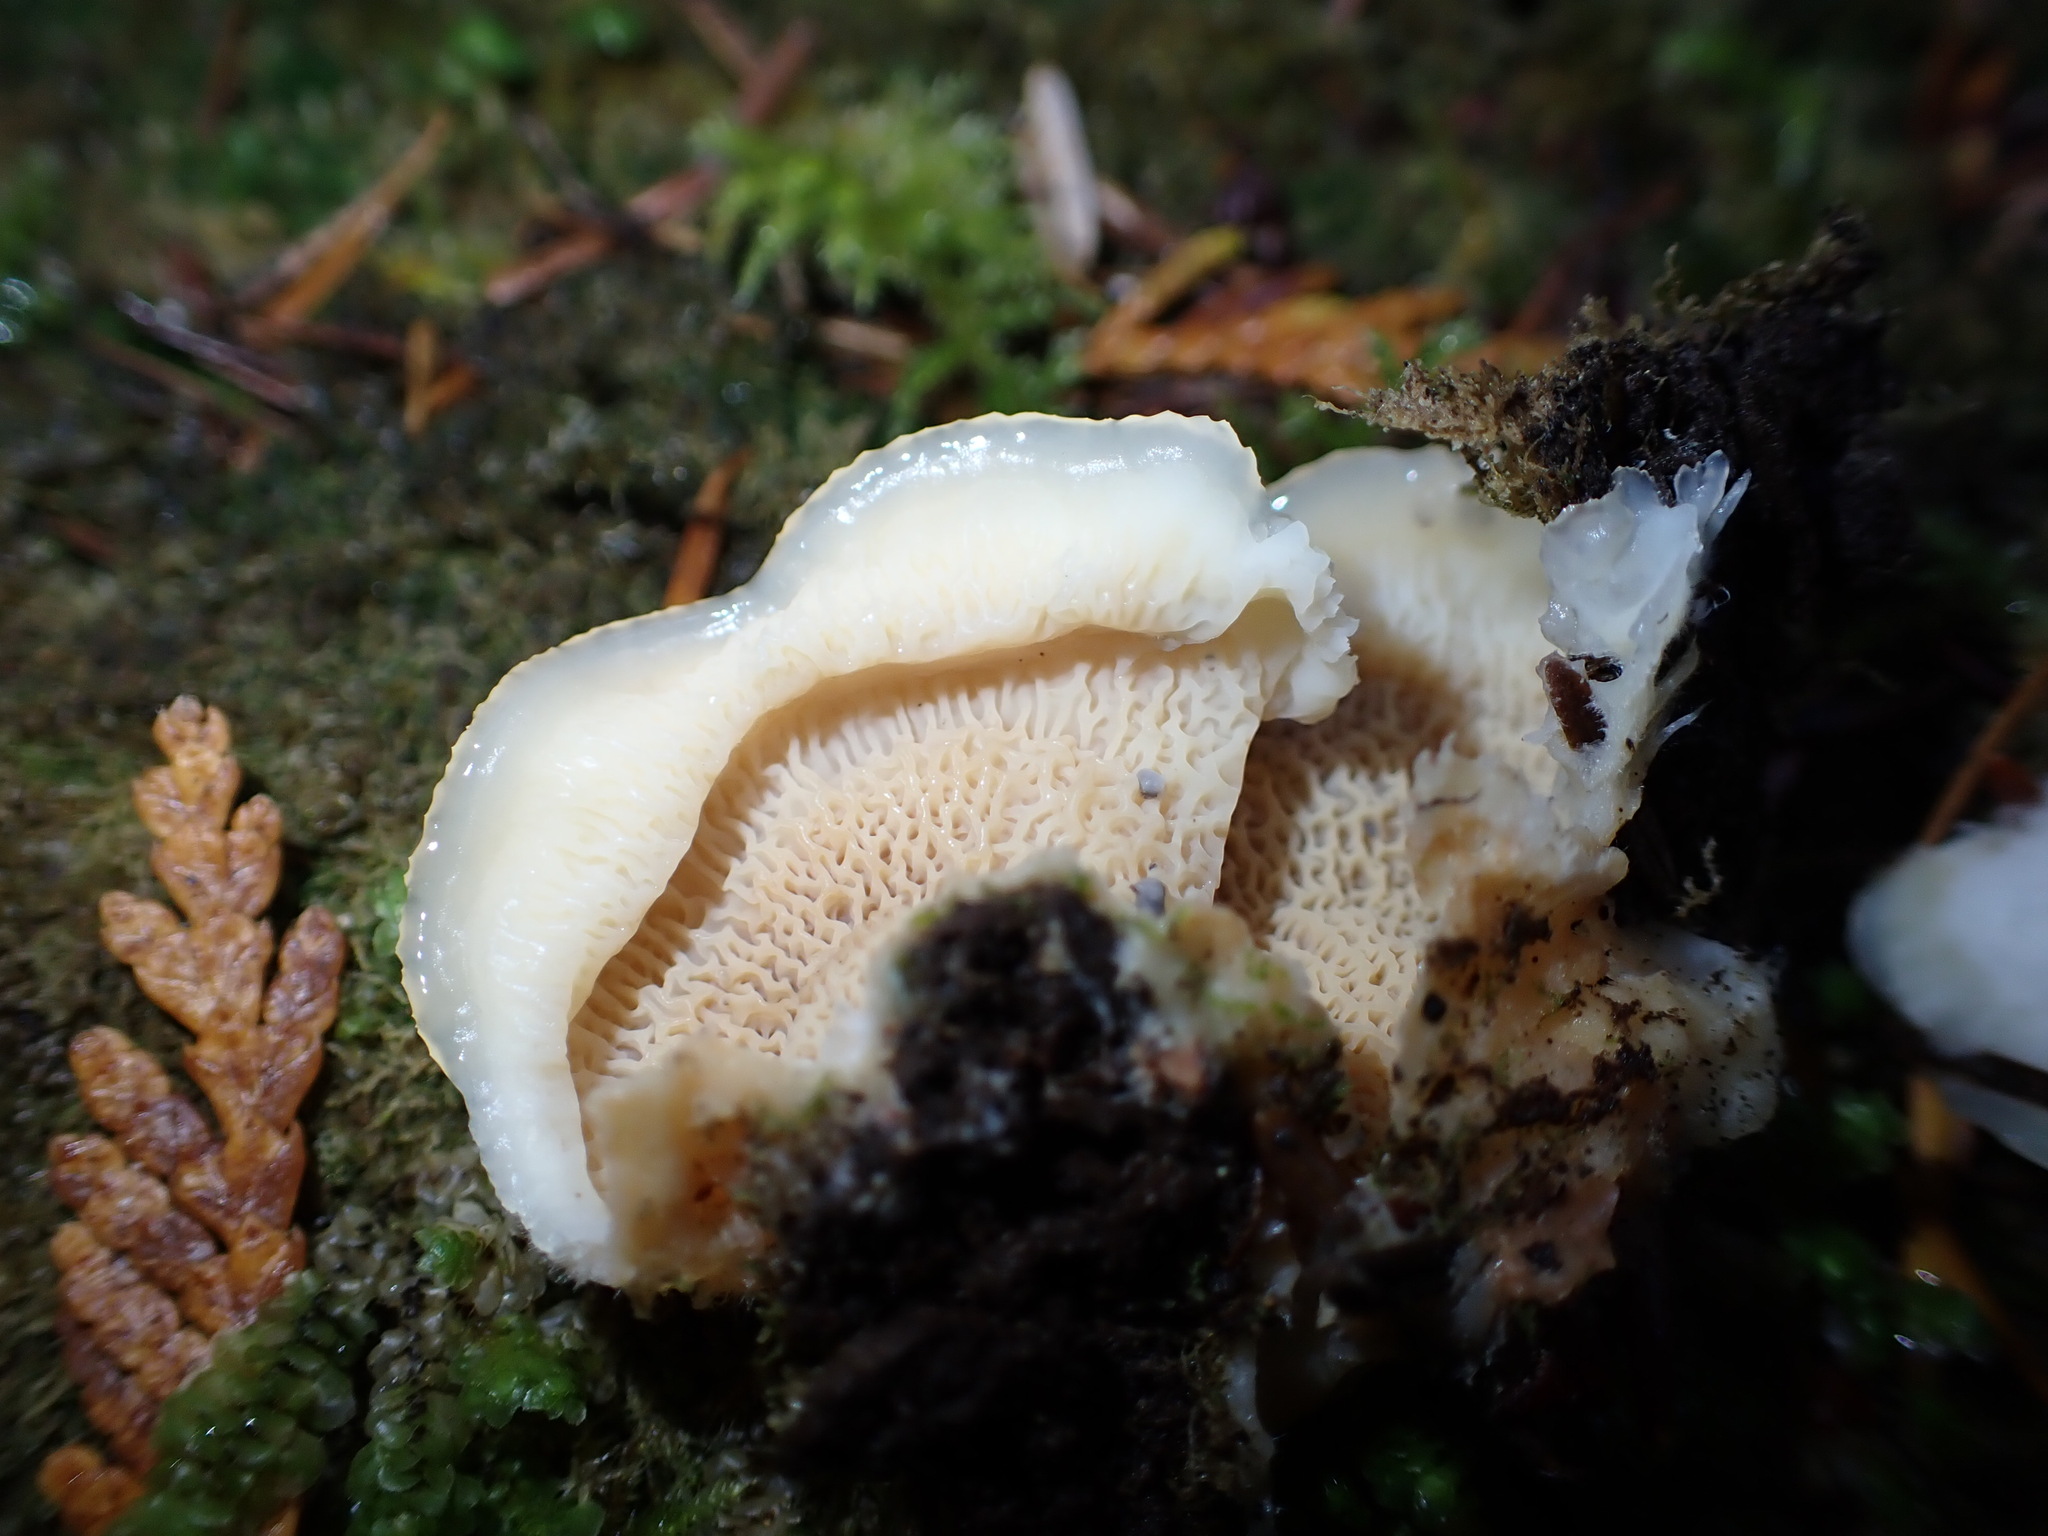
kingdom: Fungi
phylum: Basidiomycota
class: Agaricomycetes
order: Polyporales
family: Meruliaceae
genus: Phlebia
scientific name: Phlebia tremellosa
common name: Jelly rot
